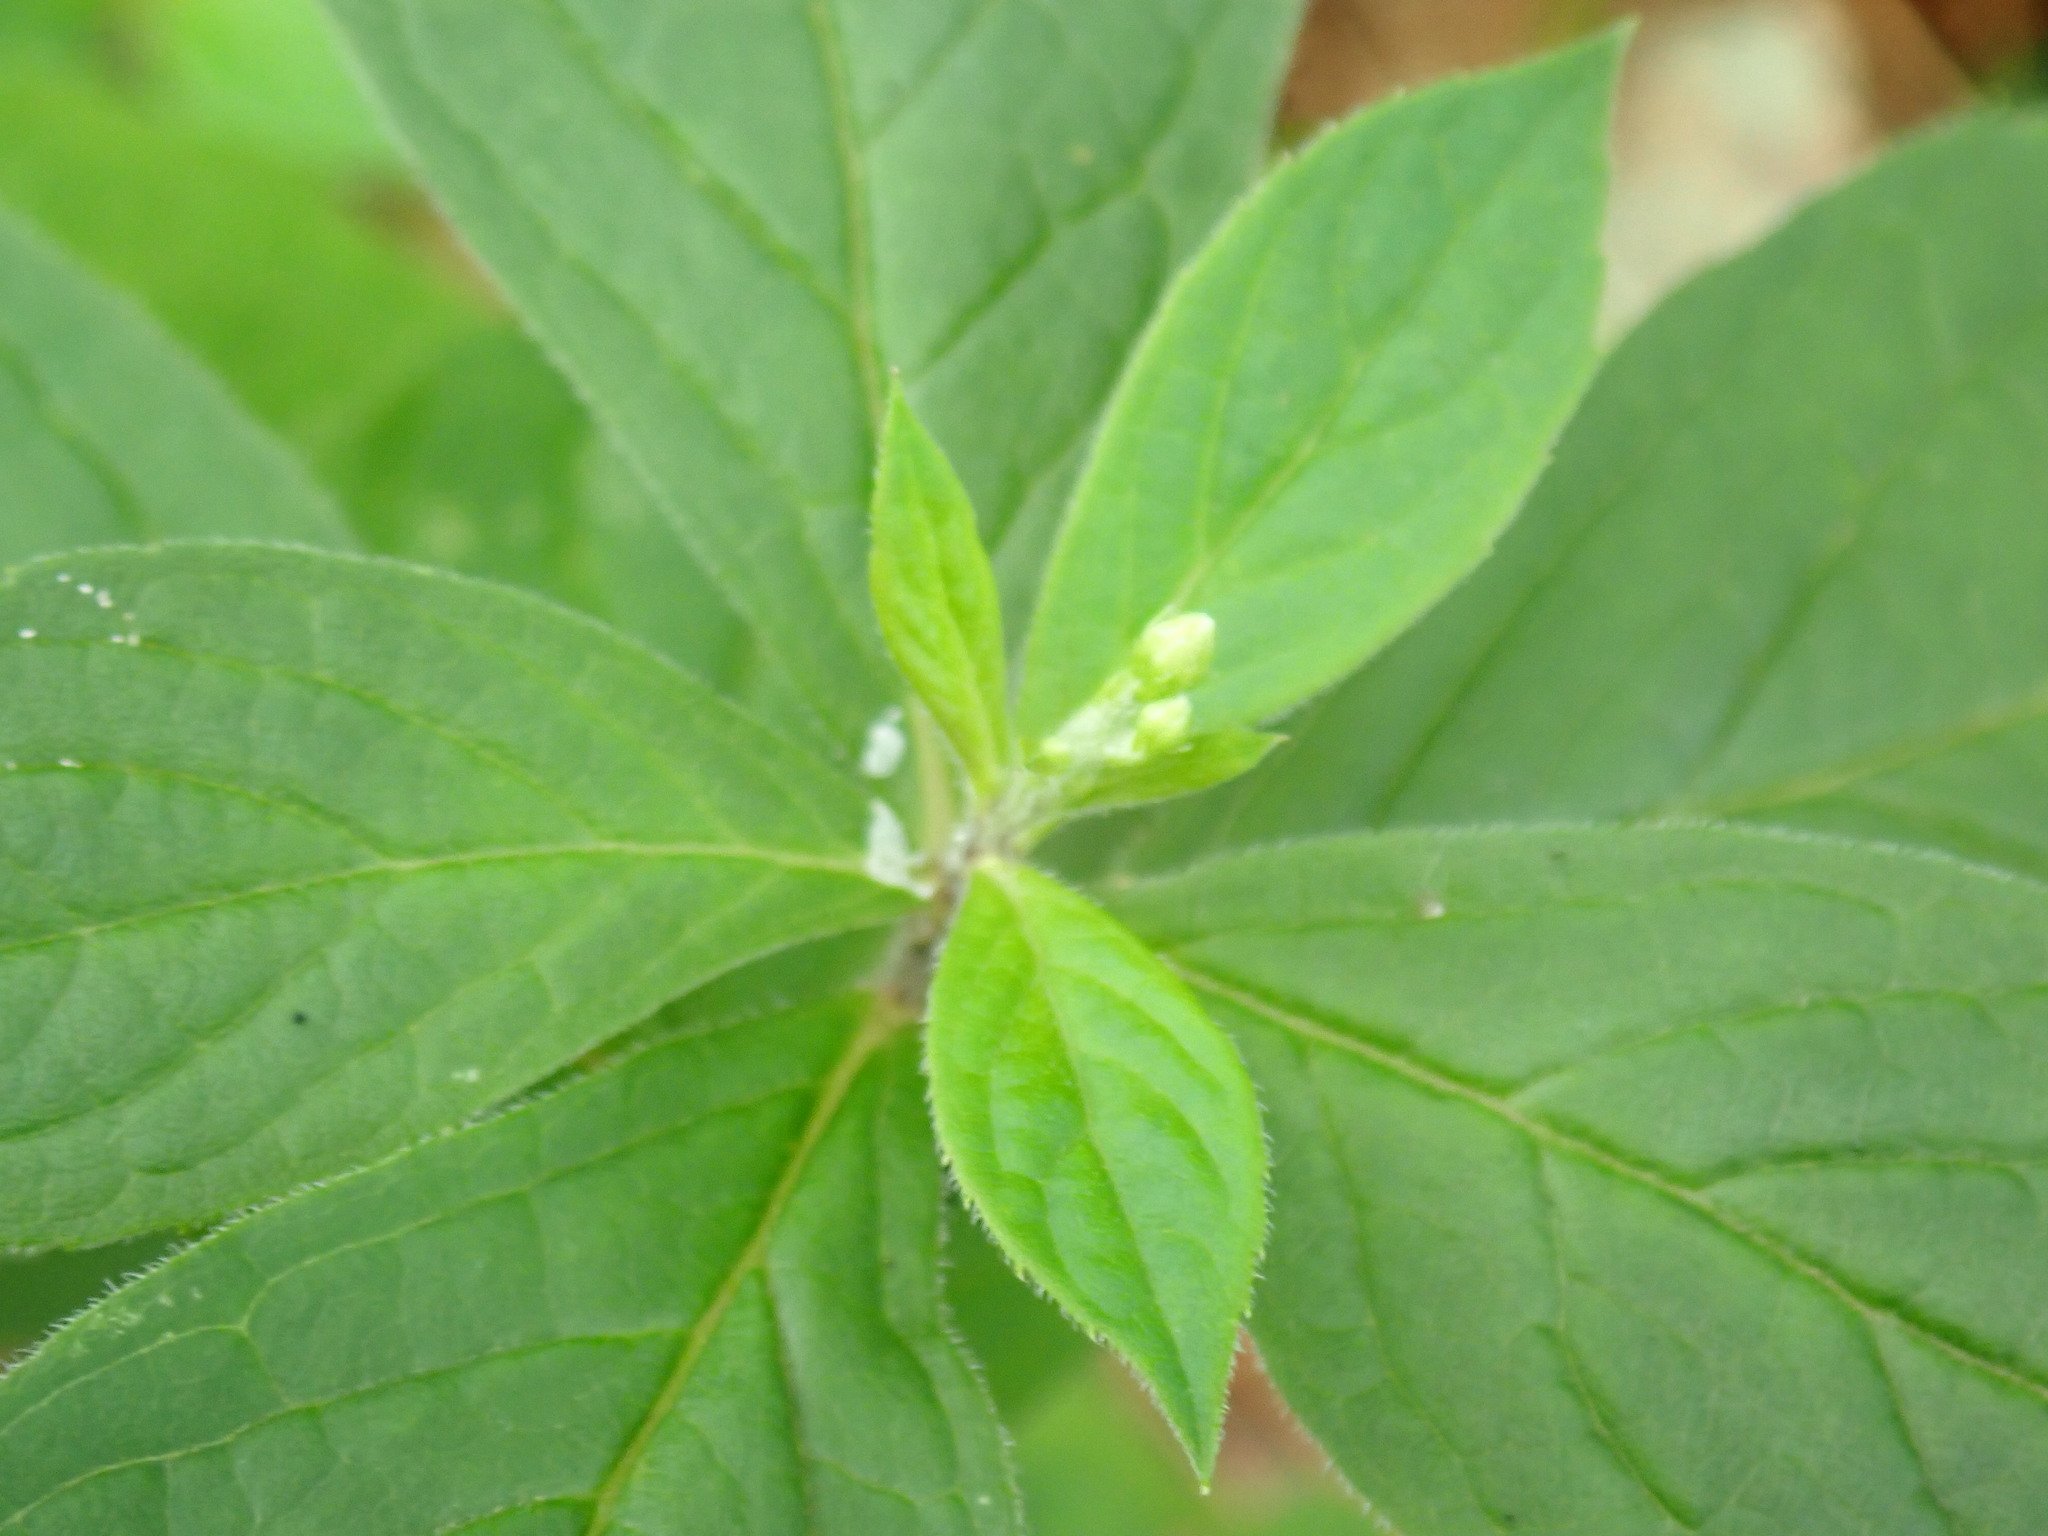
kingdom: Plantae
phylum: Tracheophyta
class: Magnoliopsida
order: Asterales
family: Asteraceae
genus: Oclemena
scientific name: Oclemena acuminata
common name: Mountain aster
